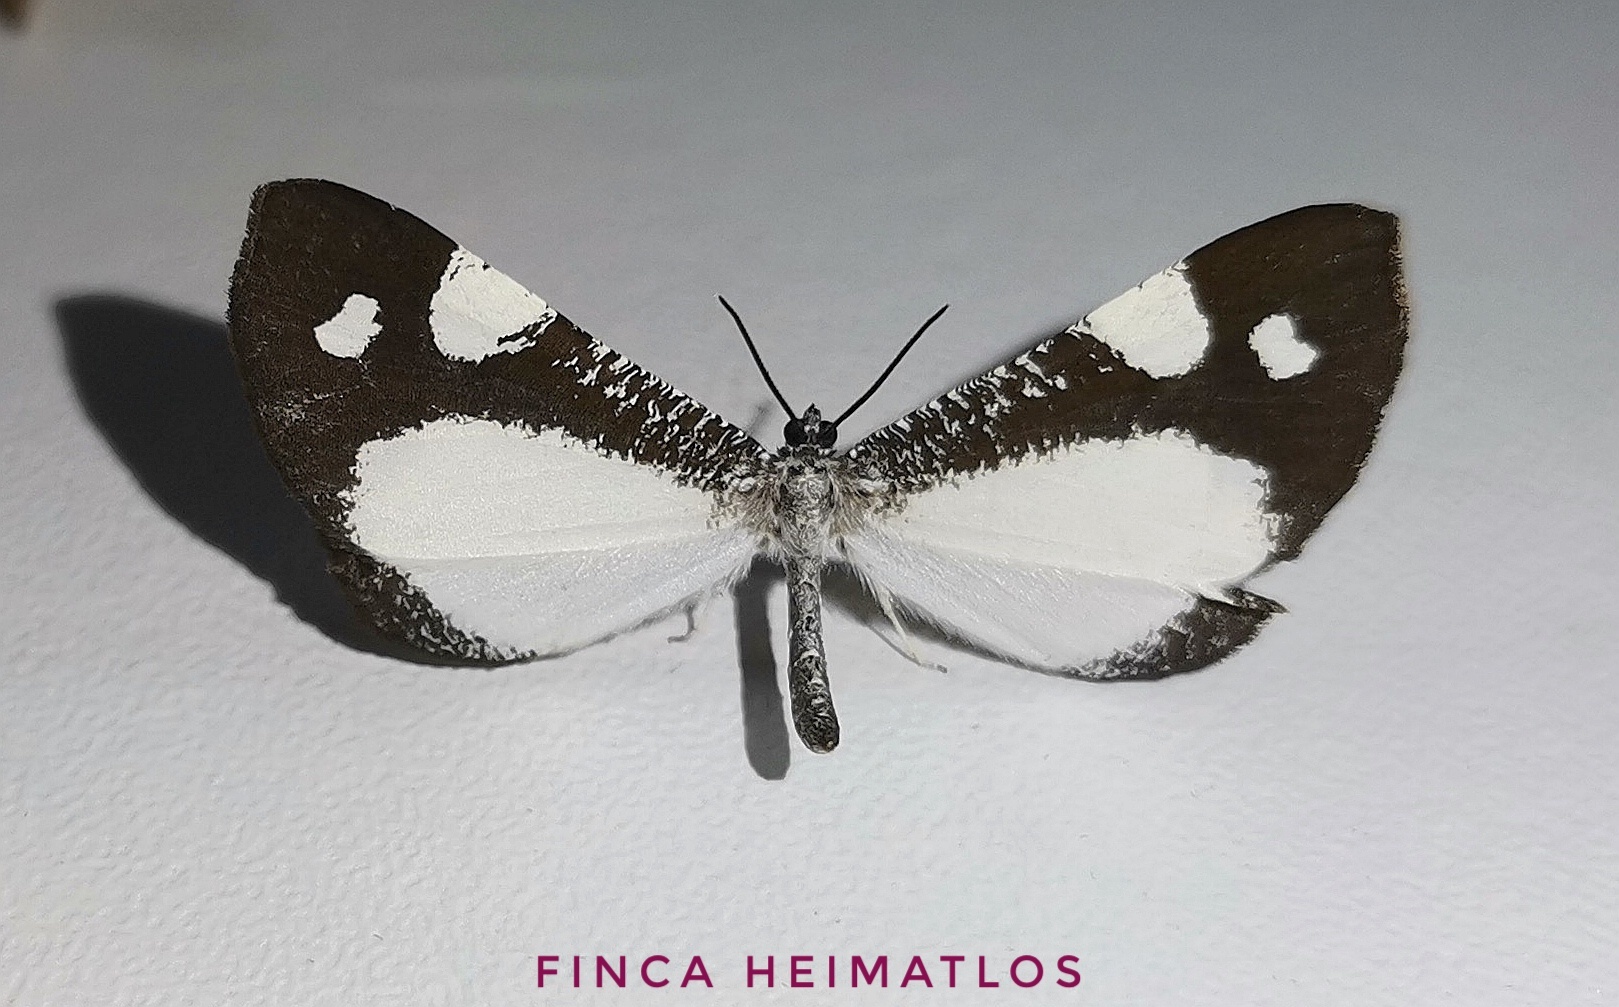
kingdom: Animalia
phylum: Arthropoda
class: Insecta
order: Lepidoptera
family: Hedylidae
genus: Macrosoma
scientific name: Macrosoma leucoplethes
